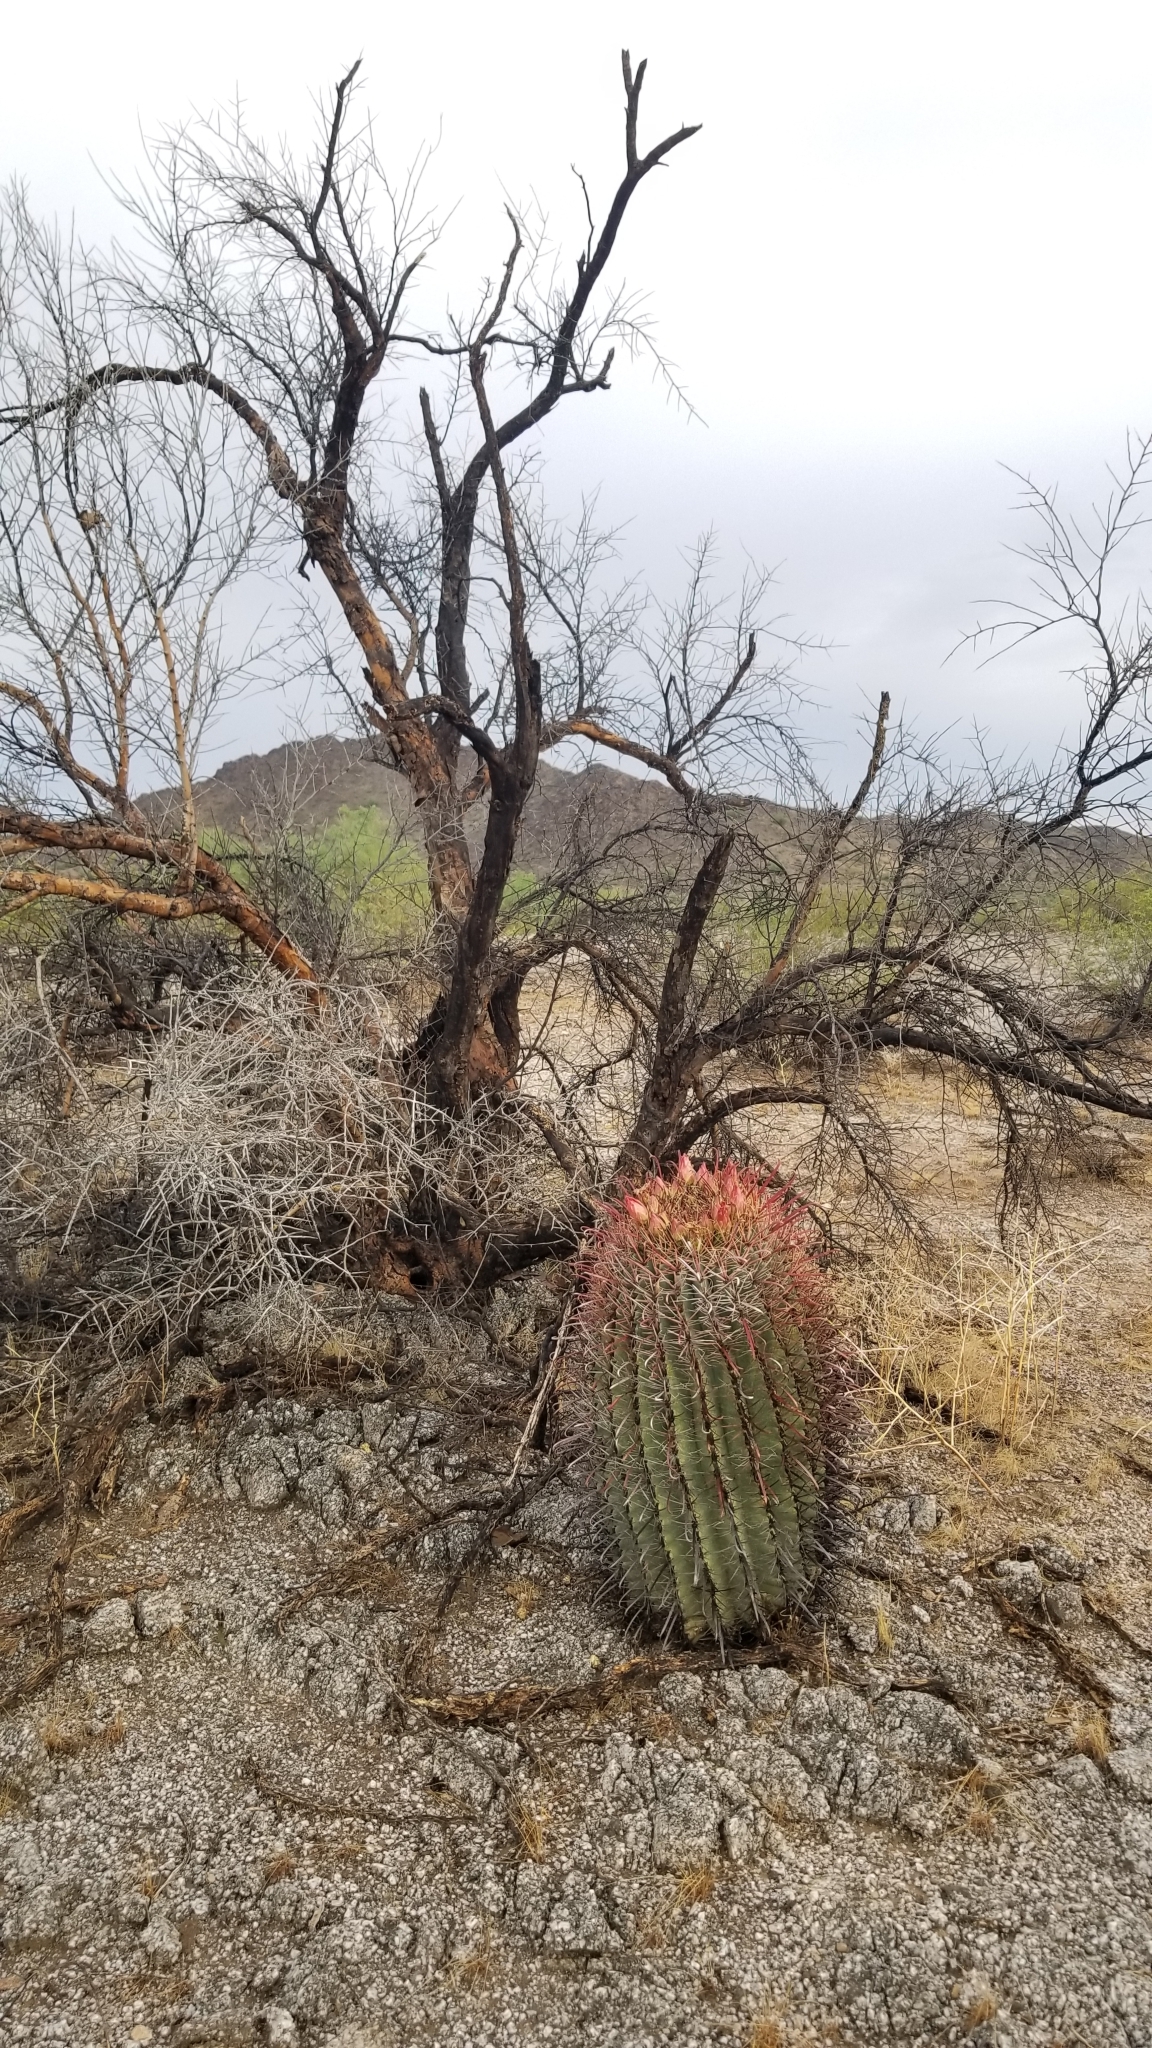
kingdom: Plantae
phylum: Tracheophyta
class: Magnoliopsida
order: Caryophyllales
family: Cactaceae
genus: Ferocactus
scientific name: Ferocactus wislizeni
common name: Candy barrel cactus
